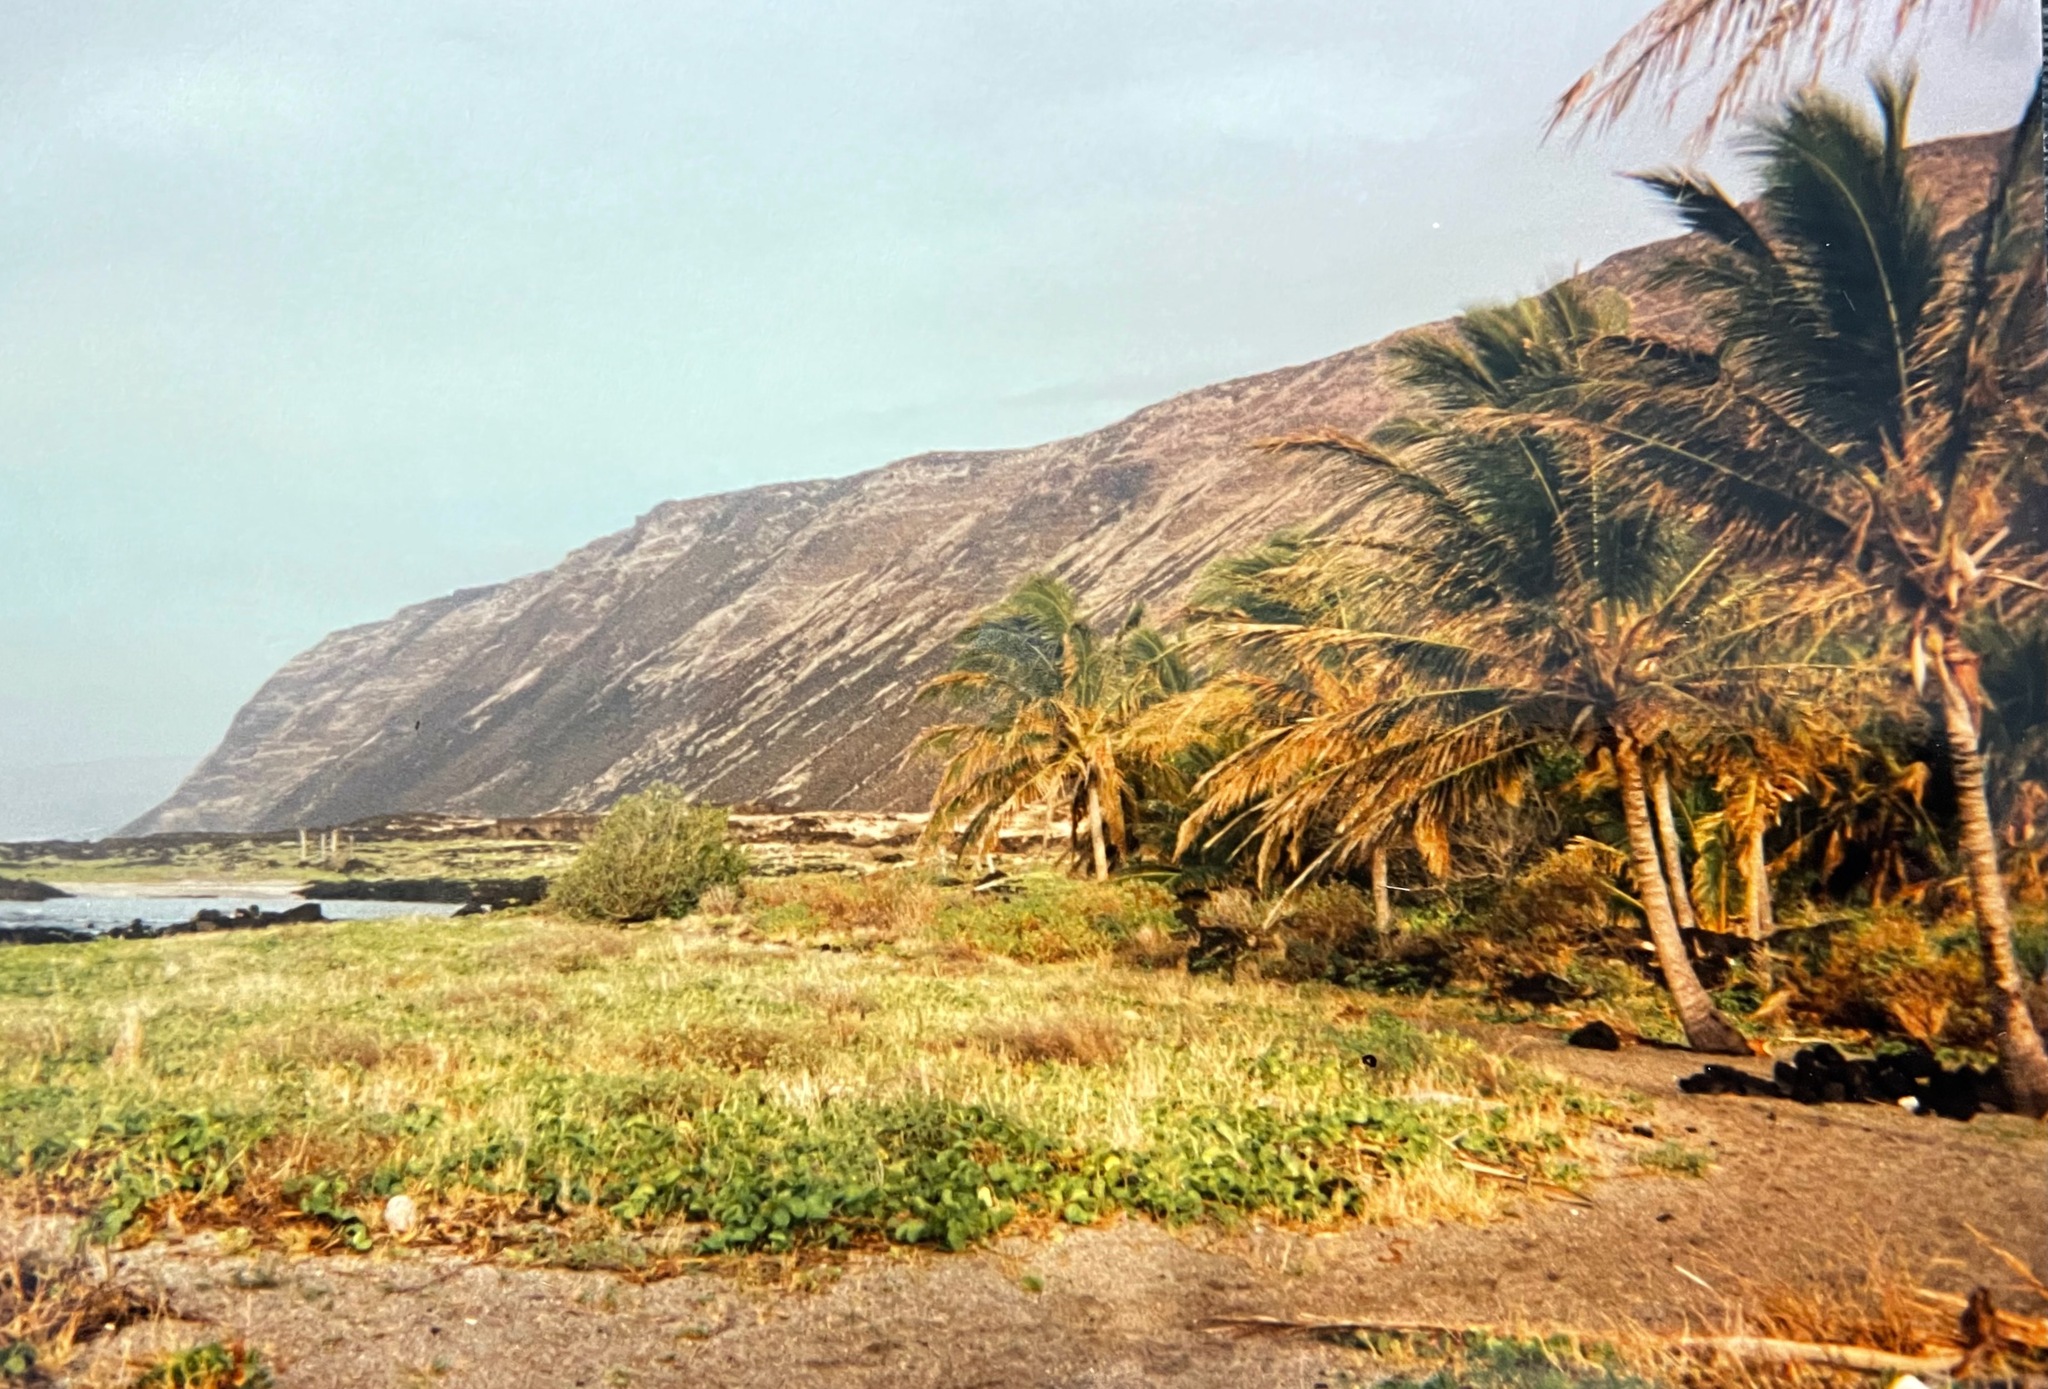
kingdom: Plantae
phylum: Tracheophyta
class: Liliopsida
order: Arecales
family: Arecaceae
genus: Cocos
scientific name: Cocos nucifera
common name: Coconut palm
